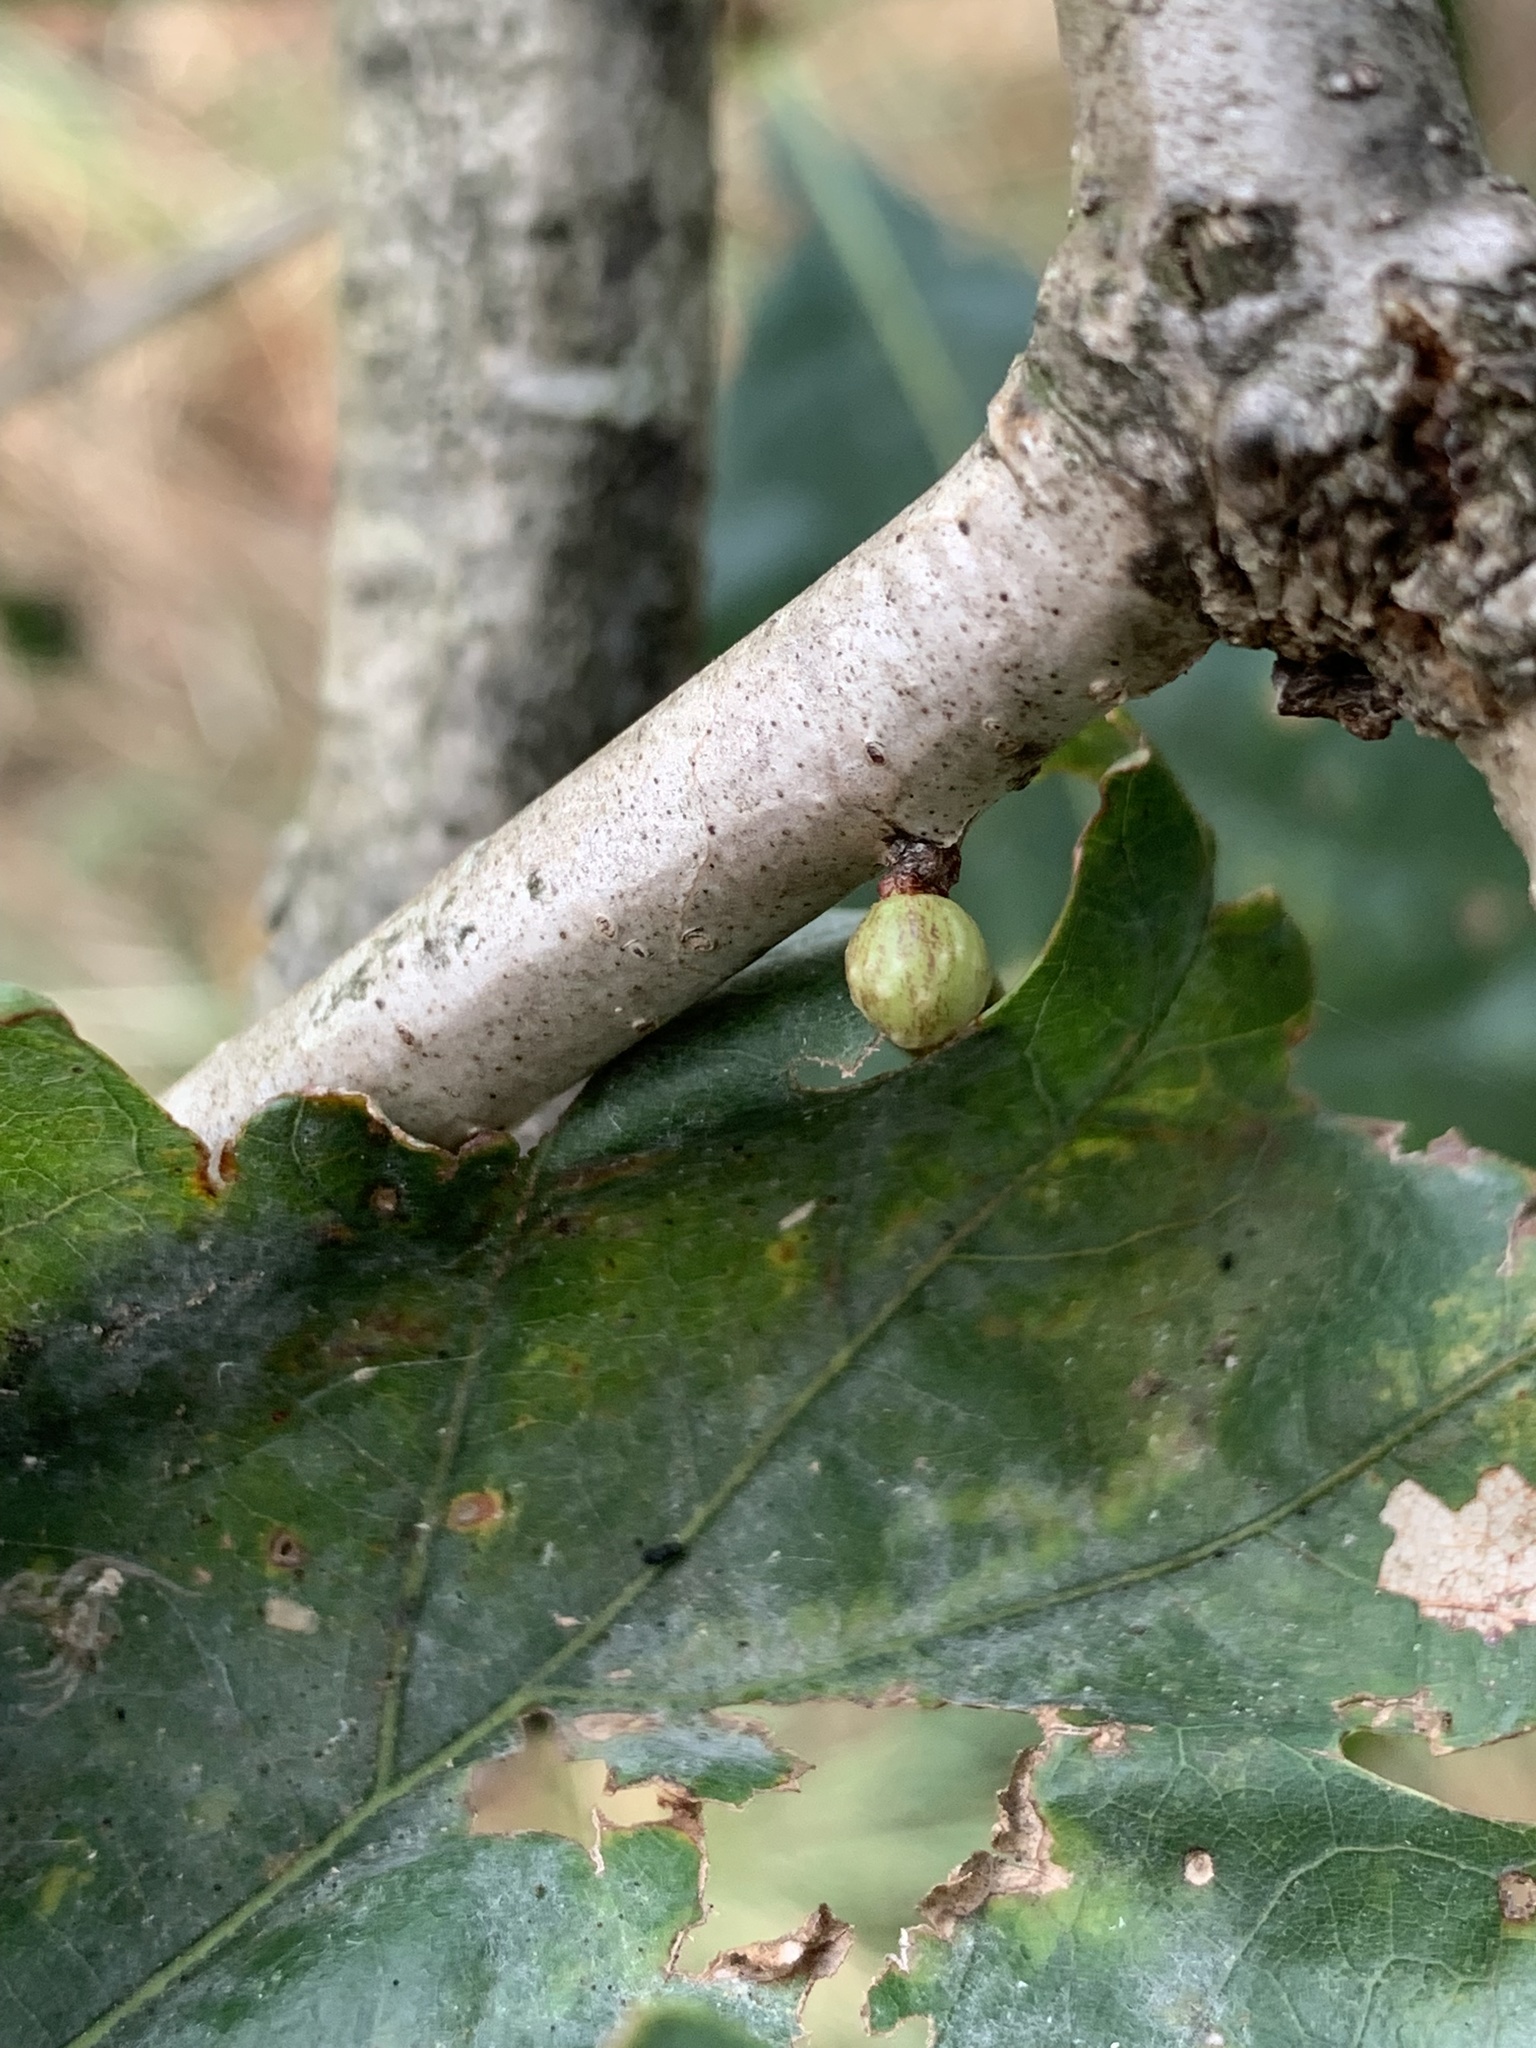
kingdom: Animalia
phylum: Arthropoda
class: Insecta
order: Hymenoptera
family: Cynipidae
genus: Andricus
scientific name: Andricus
